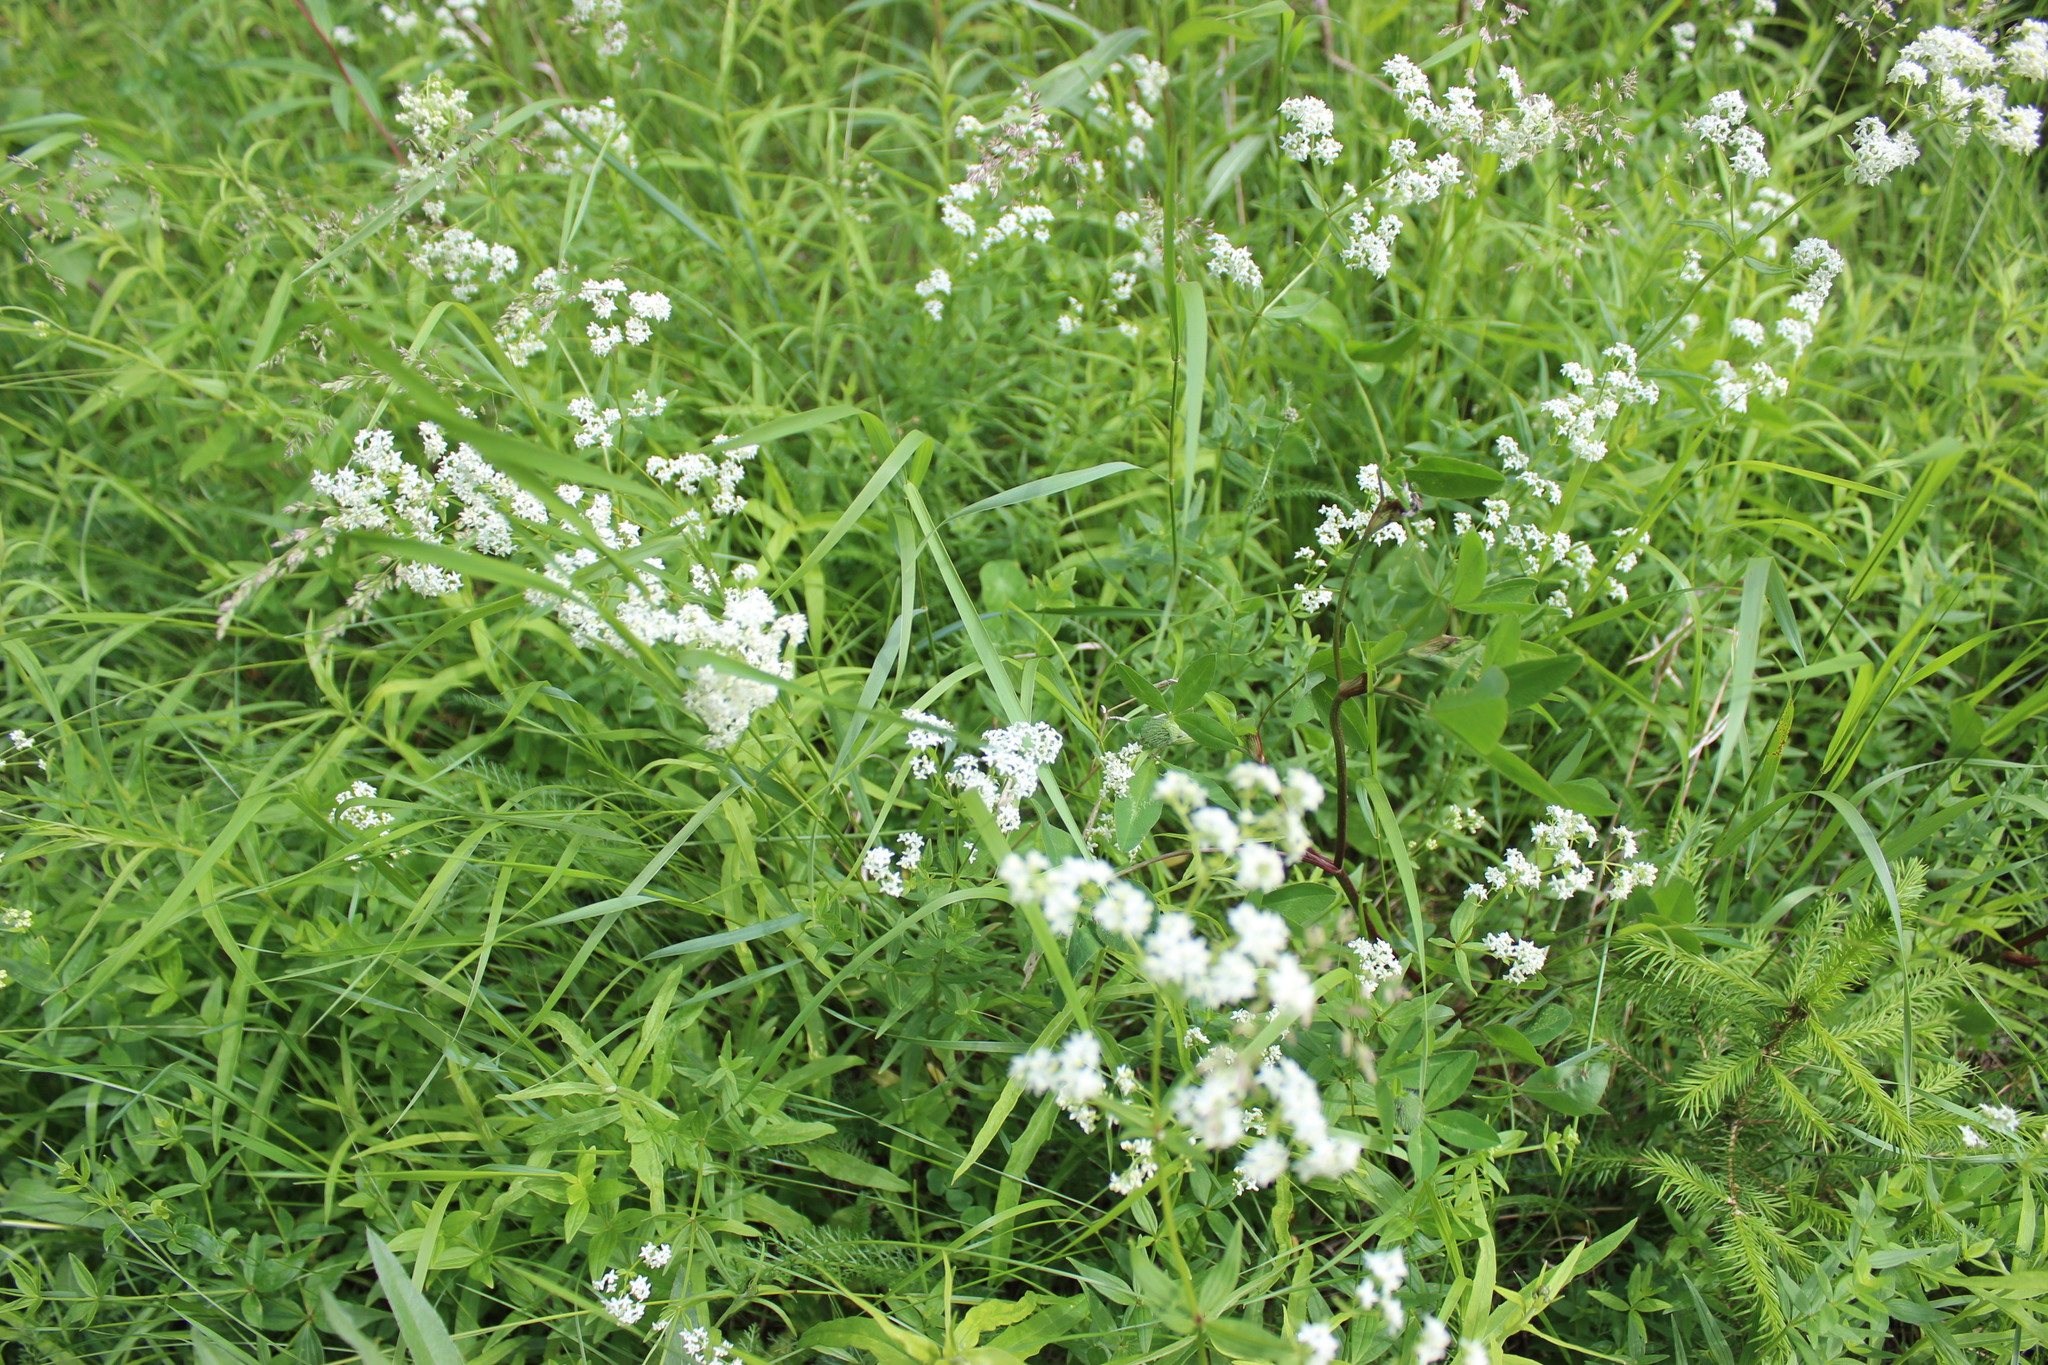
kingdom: Plantae
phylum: Tracheophyta
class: Magnoliopsida
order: Gentianales
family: Rubiaceae
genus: Galium
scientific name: Galium boreale
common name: Northern bedstraw
